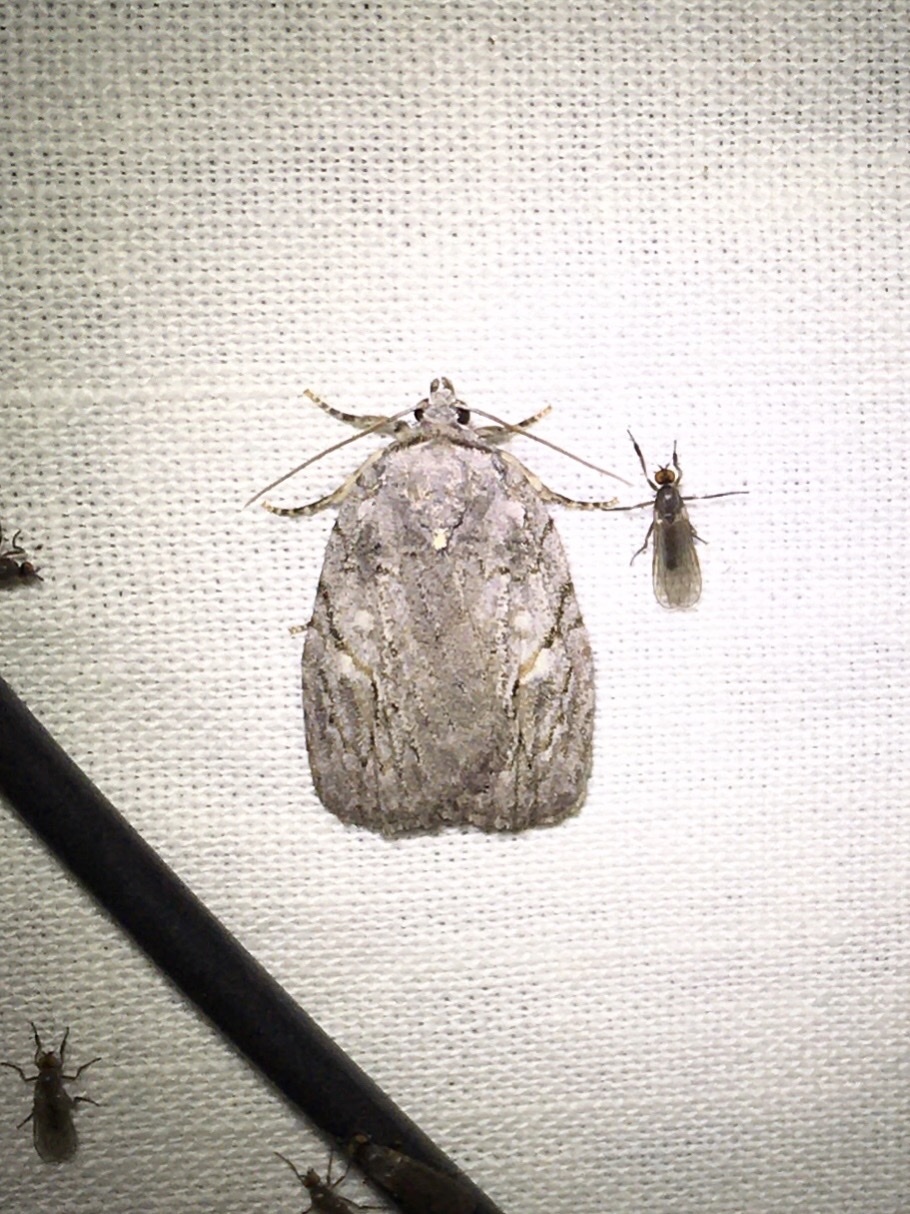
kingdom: Animalia
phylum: Arthropoda
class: Insecta
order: Lepidoptera
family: Noctuidae
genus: Balsa
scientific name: Balsa labecula
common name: White-blotched balsa moth
